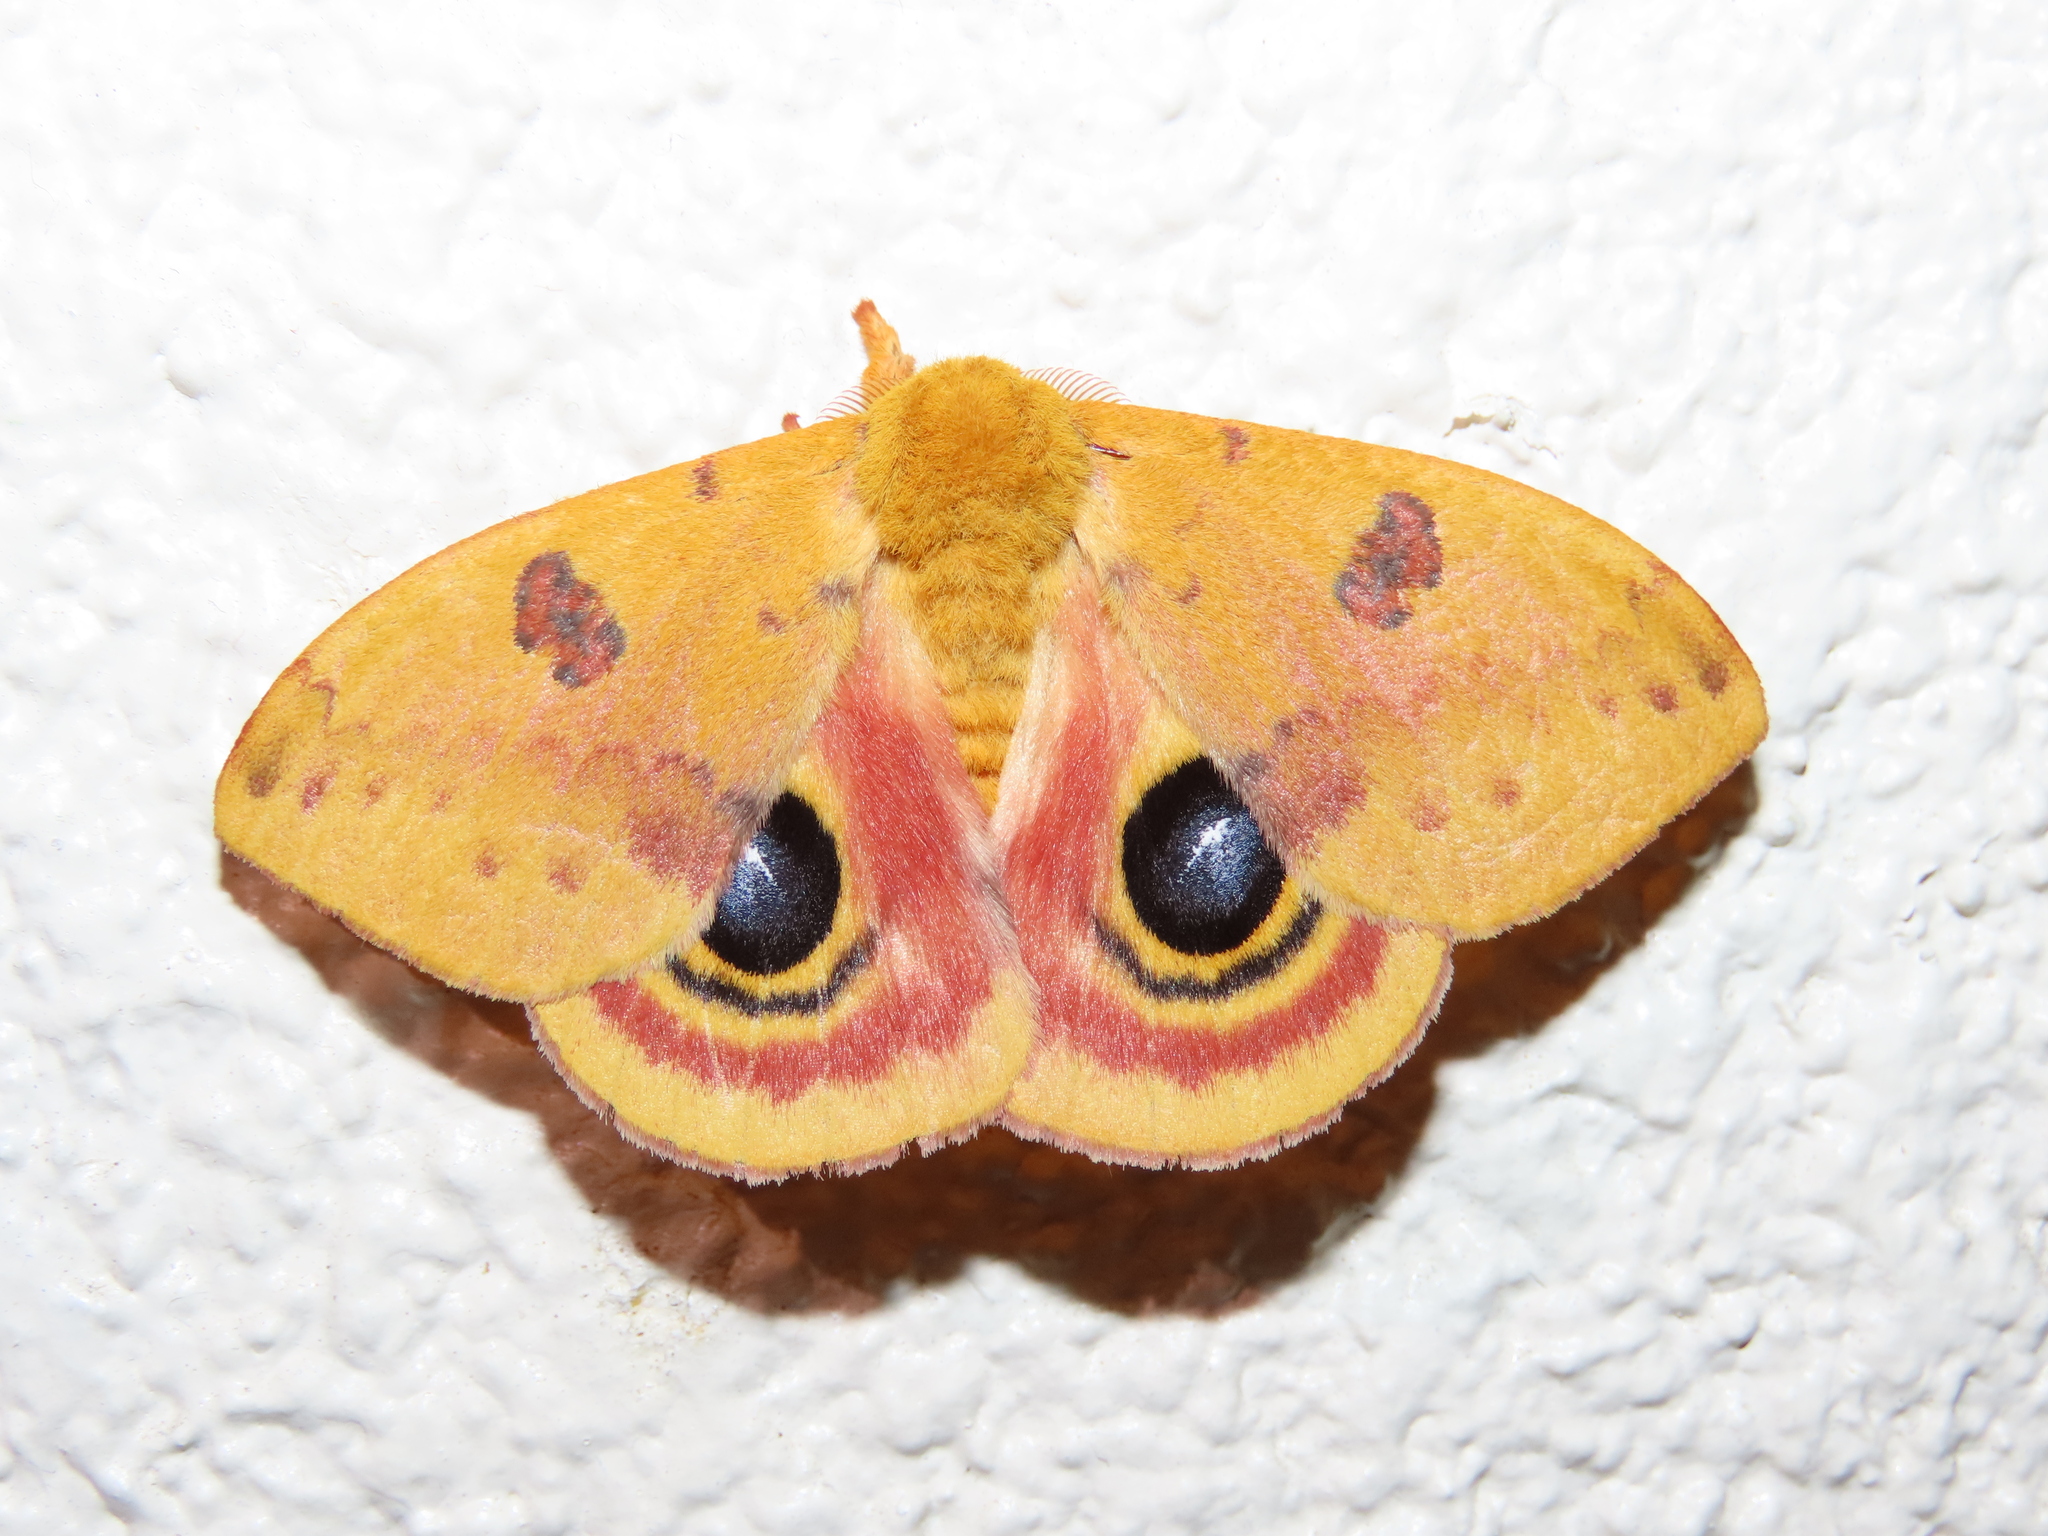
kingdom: Animalia
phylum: Arthropoda
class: Insecta
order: Lepidoptera
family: Saturniidae
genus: Automeris
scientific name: Automeris io
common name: Io moth
